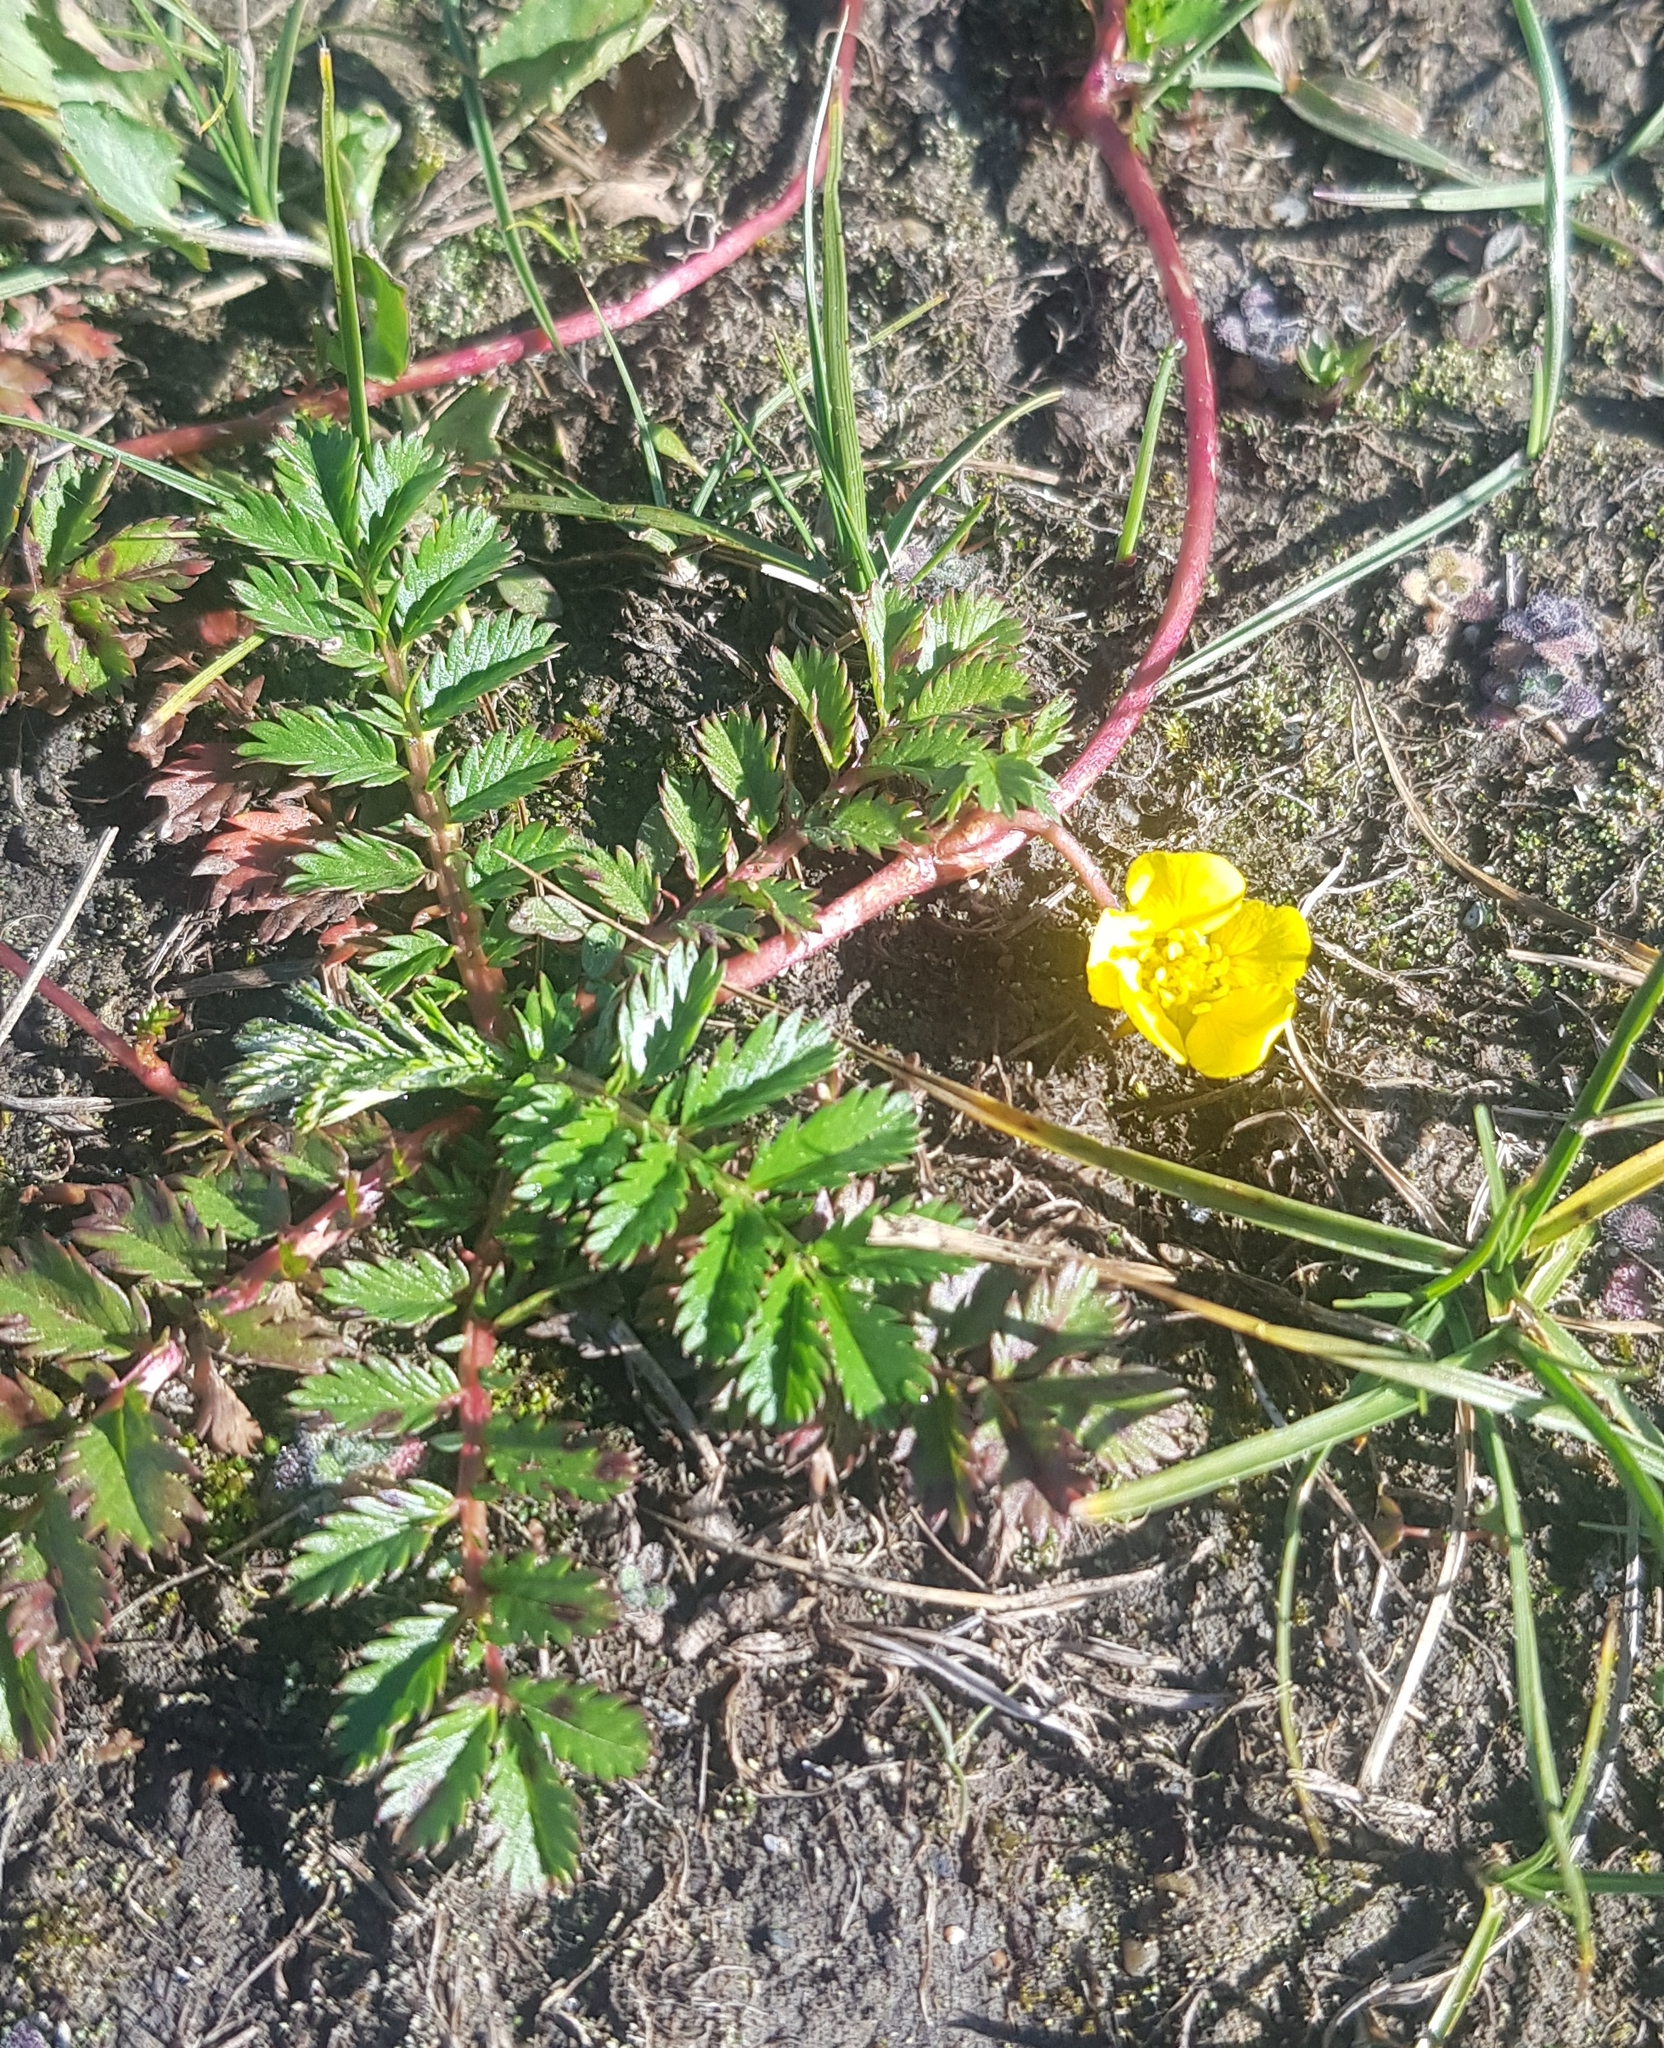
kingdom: Plantae
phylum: Tracheophyta
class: Magnoliopsida
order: Rosales
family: Rosaceae
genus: Argentina
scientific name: Argentina anserina
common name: Common silverweed
